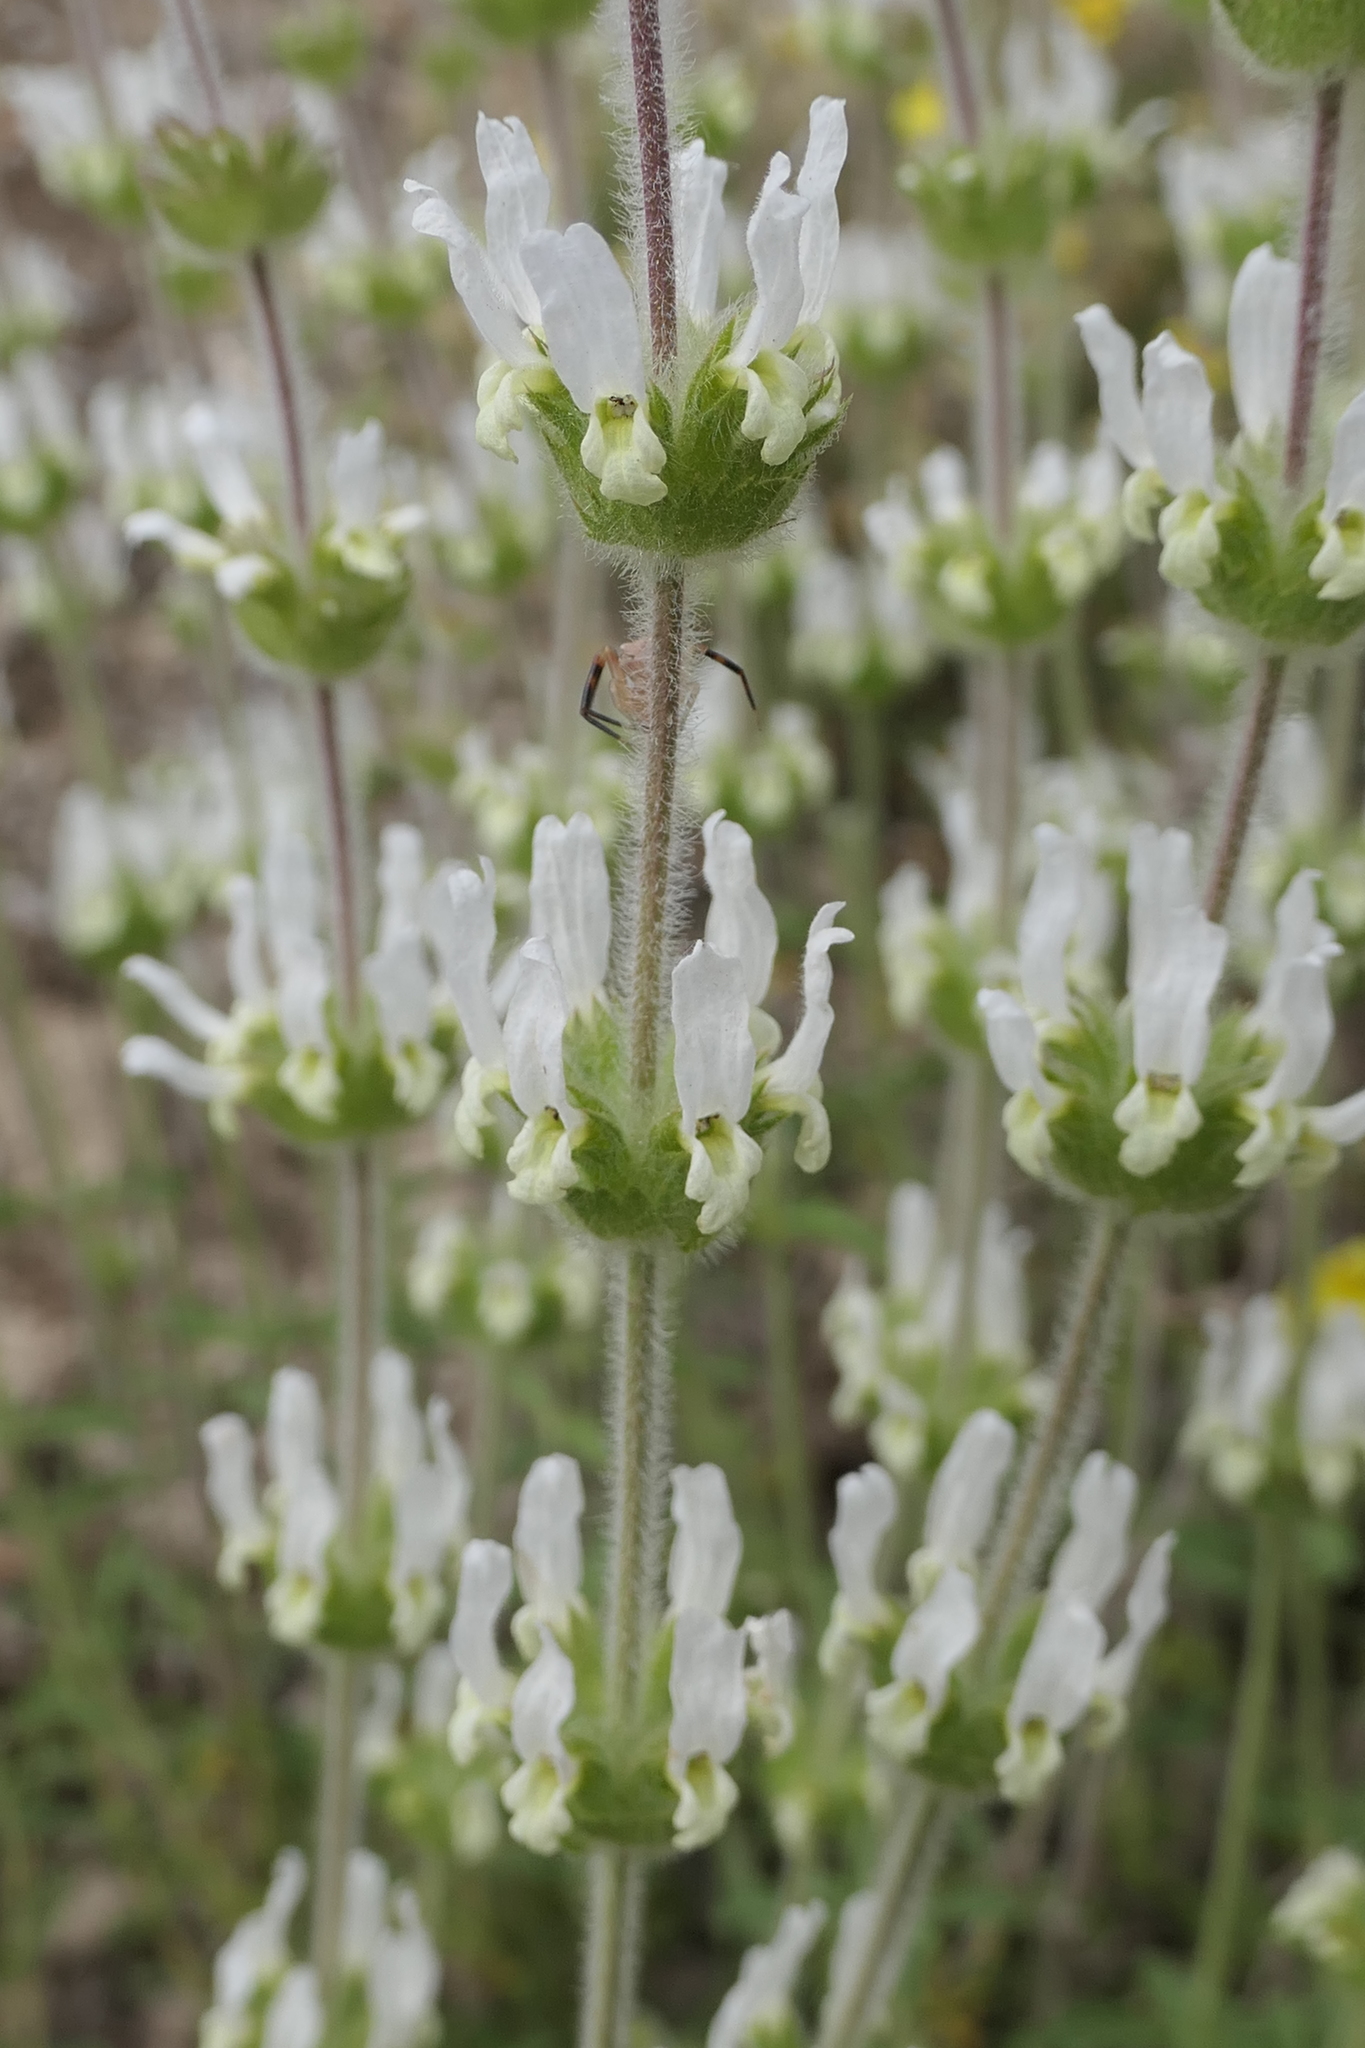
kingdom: Plantae
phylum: Tracheophyta
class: Magnoliopsida
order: Lamiales
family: Lamiaceae
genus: Sideritis
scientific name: Sideritis hirsuta
